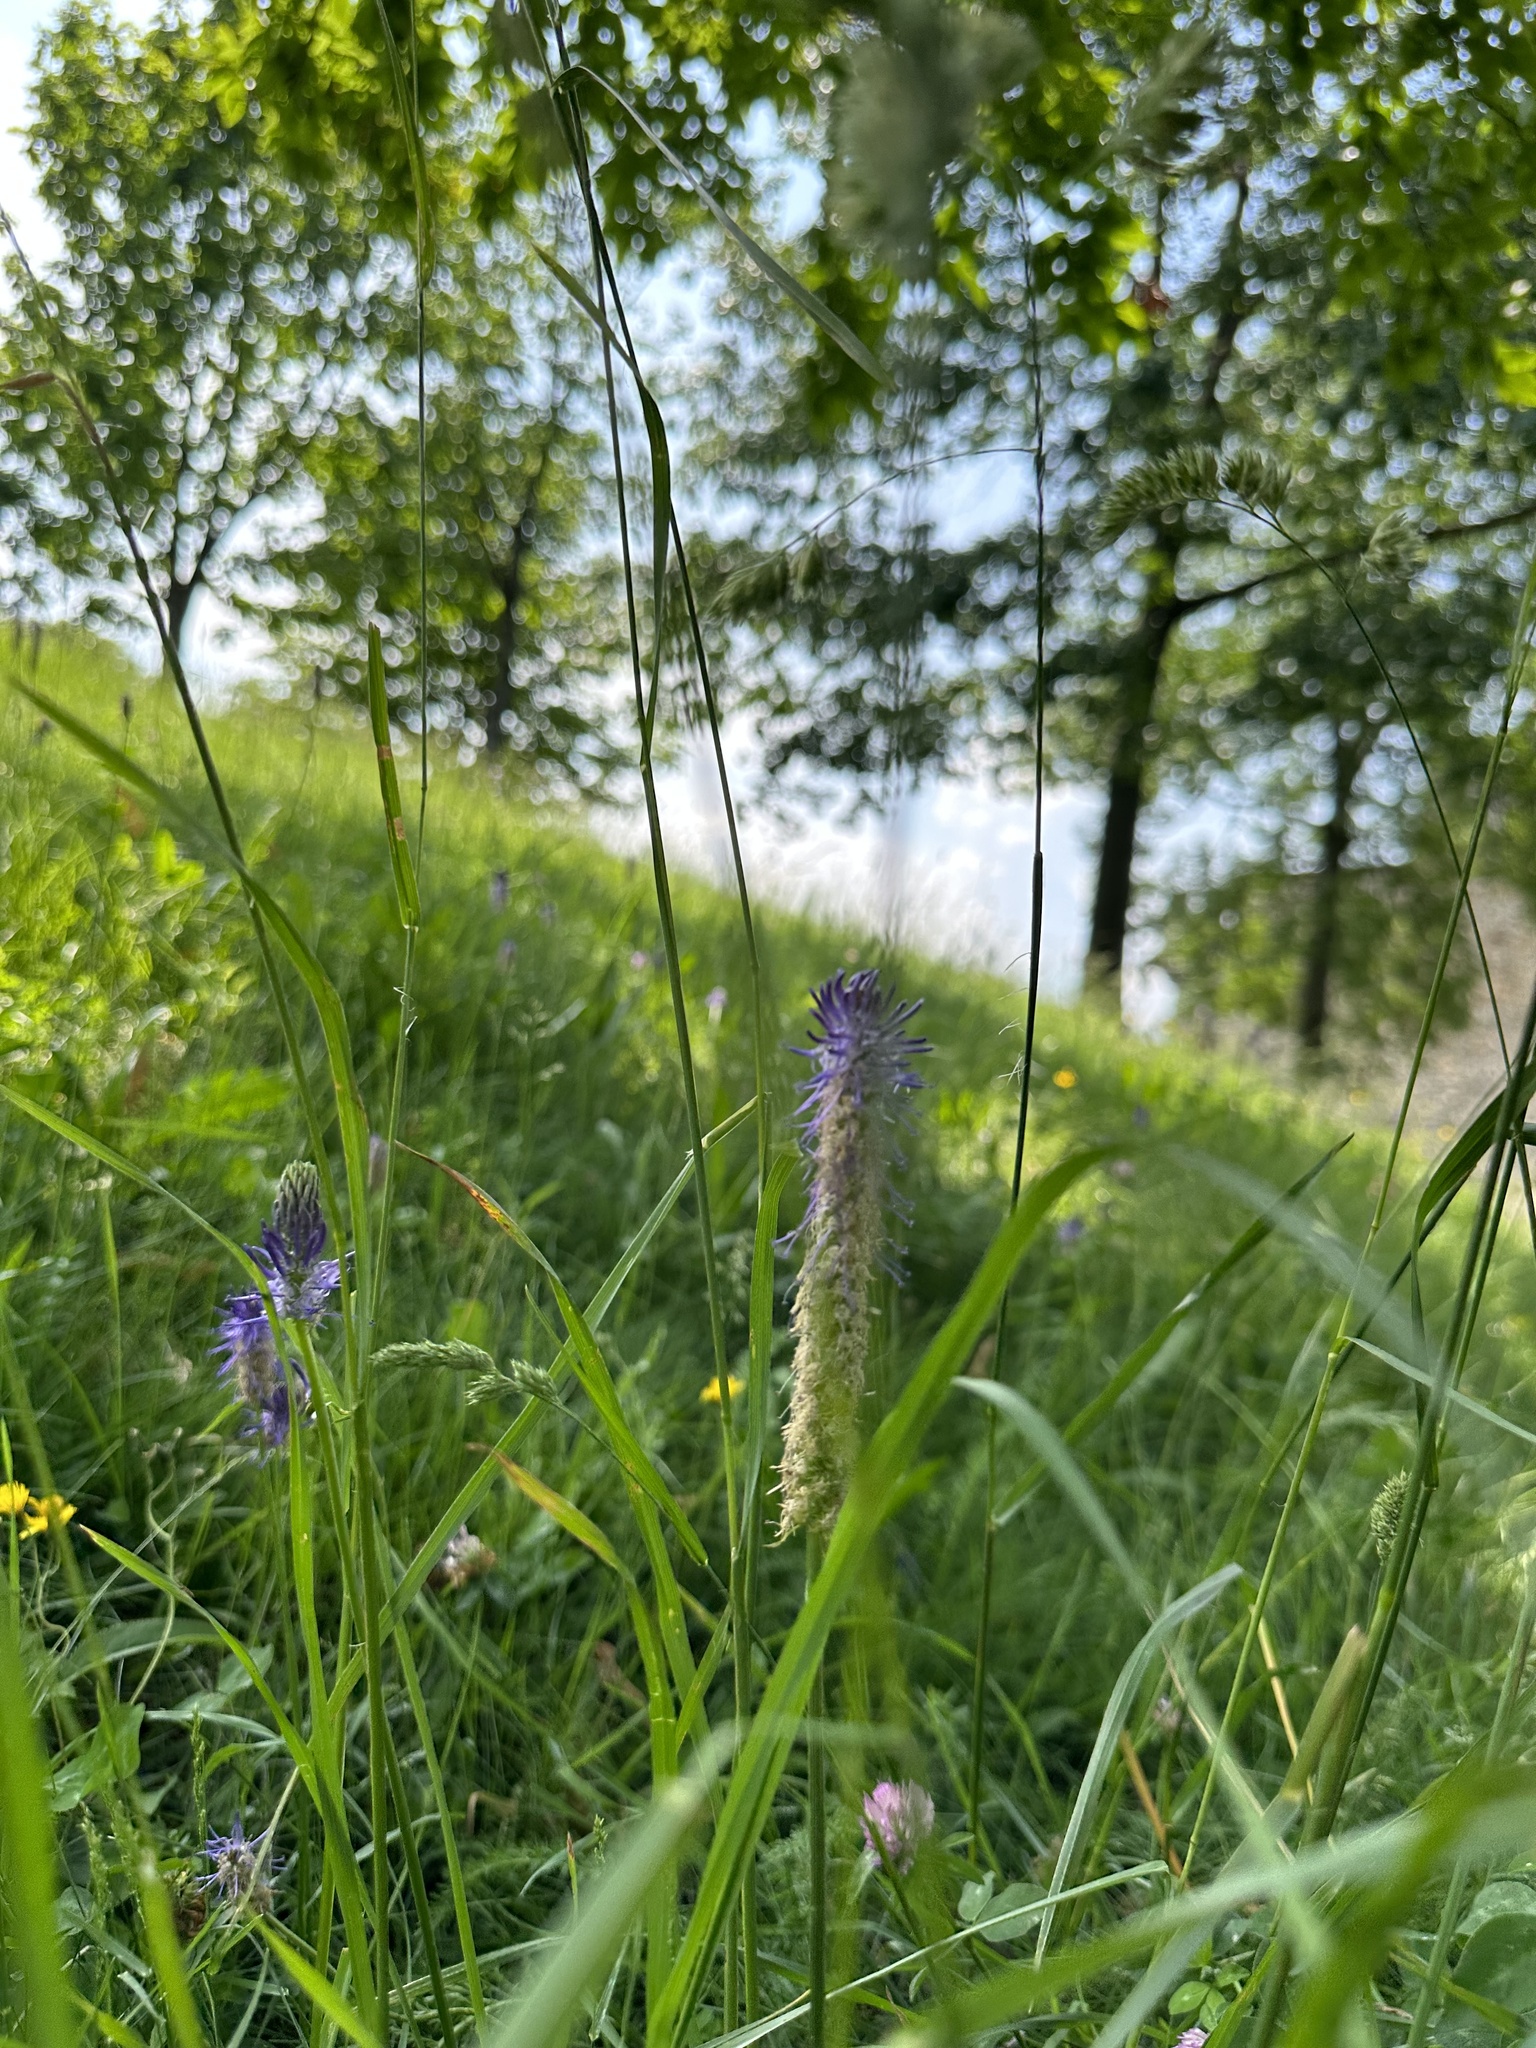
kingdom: Plantae
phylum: Tracheophyta
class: Magnoliopsida
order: Asterales
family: Campanulaceae
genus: Phyteuma
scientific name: Phyteuma betonicifolium
